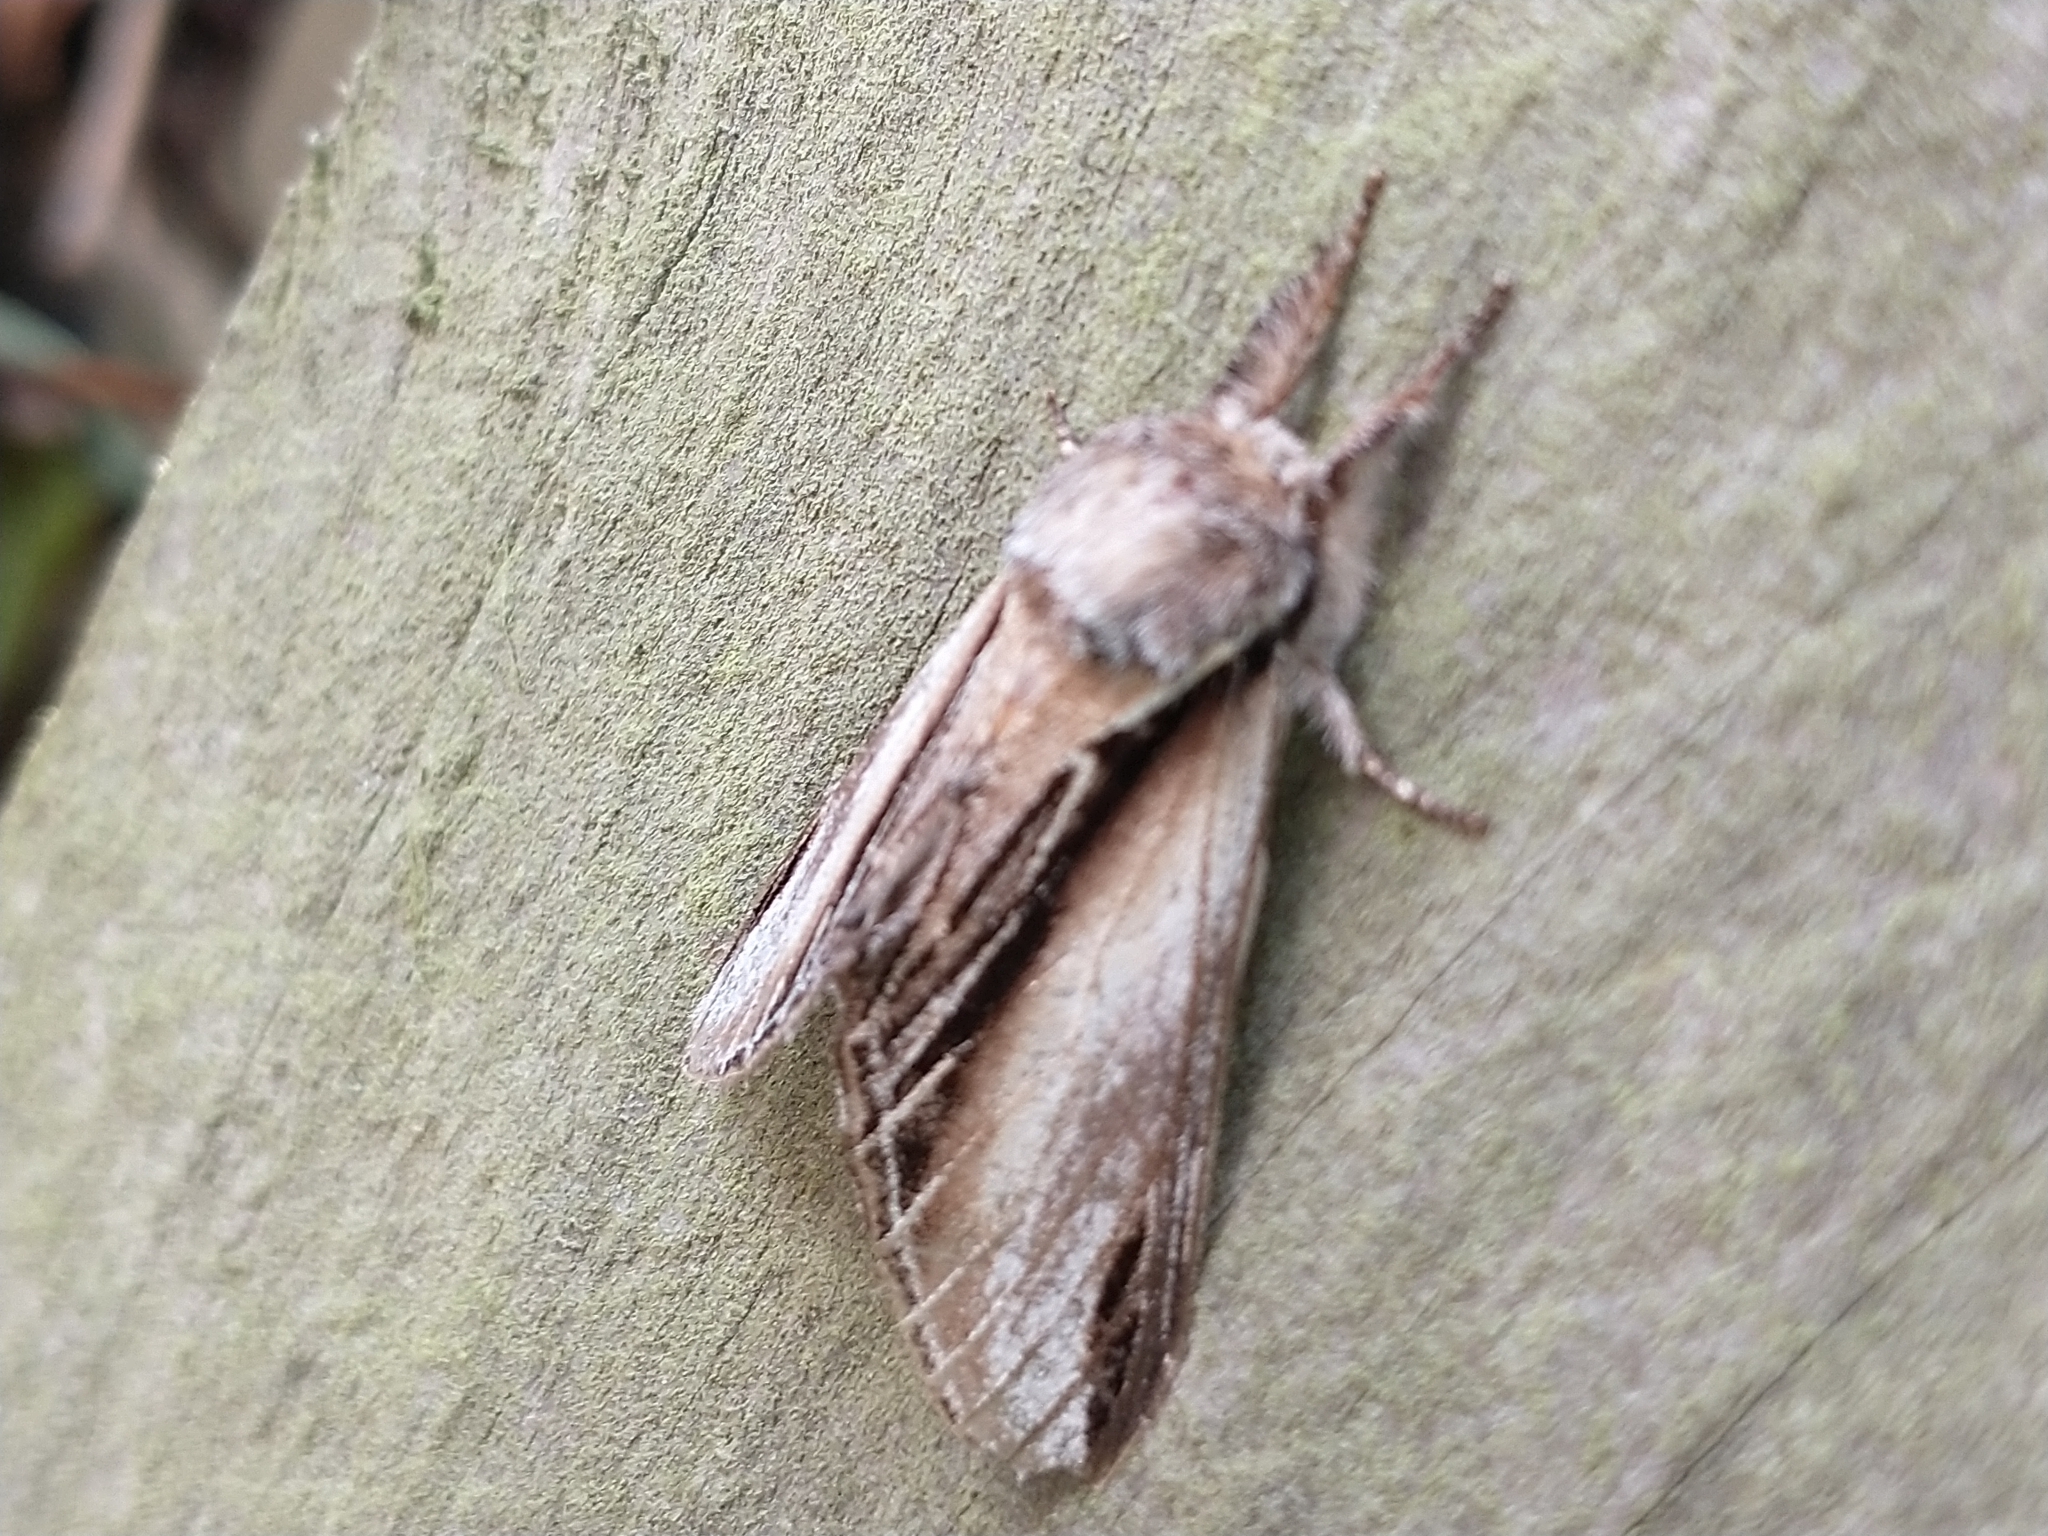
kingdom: Animalia
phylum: Arthropoda
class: Insecta
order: Lepidoptera
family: Notodontidae
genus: Pheosia
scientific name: Pheosia tremula
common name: Swallow prominent
